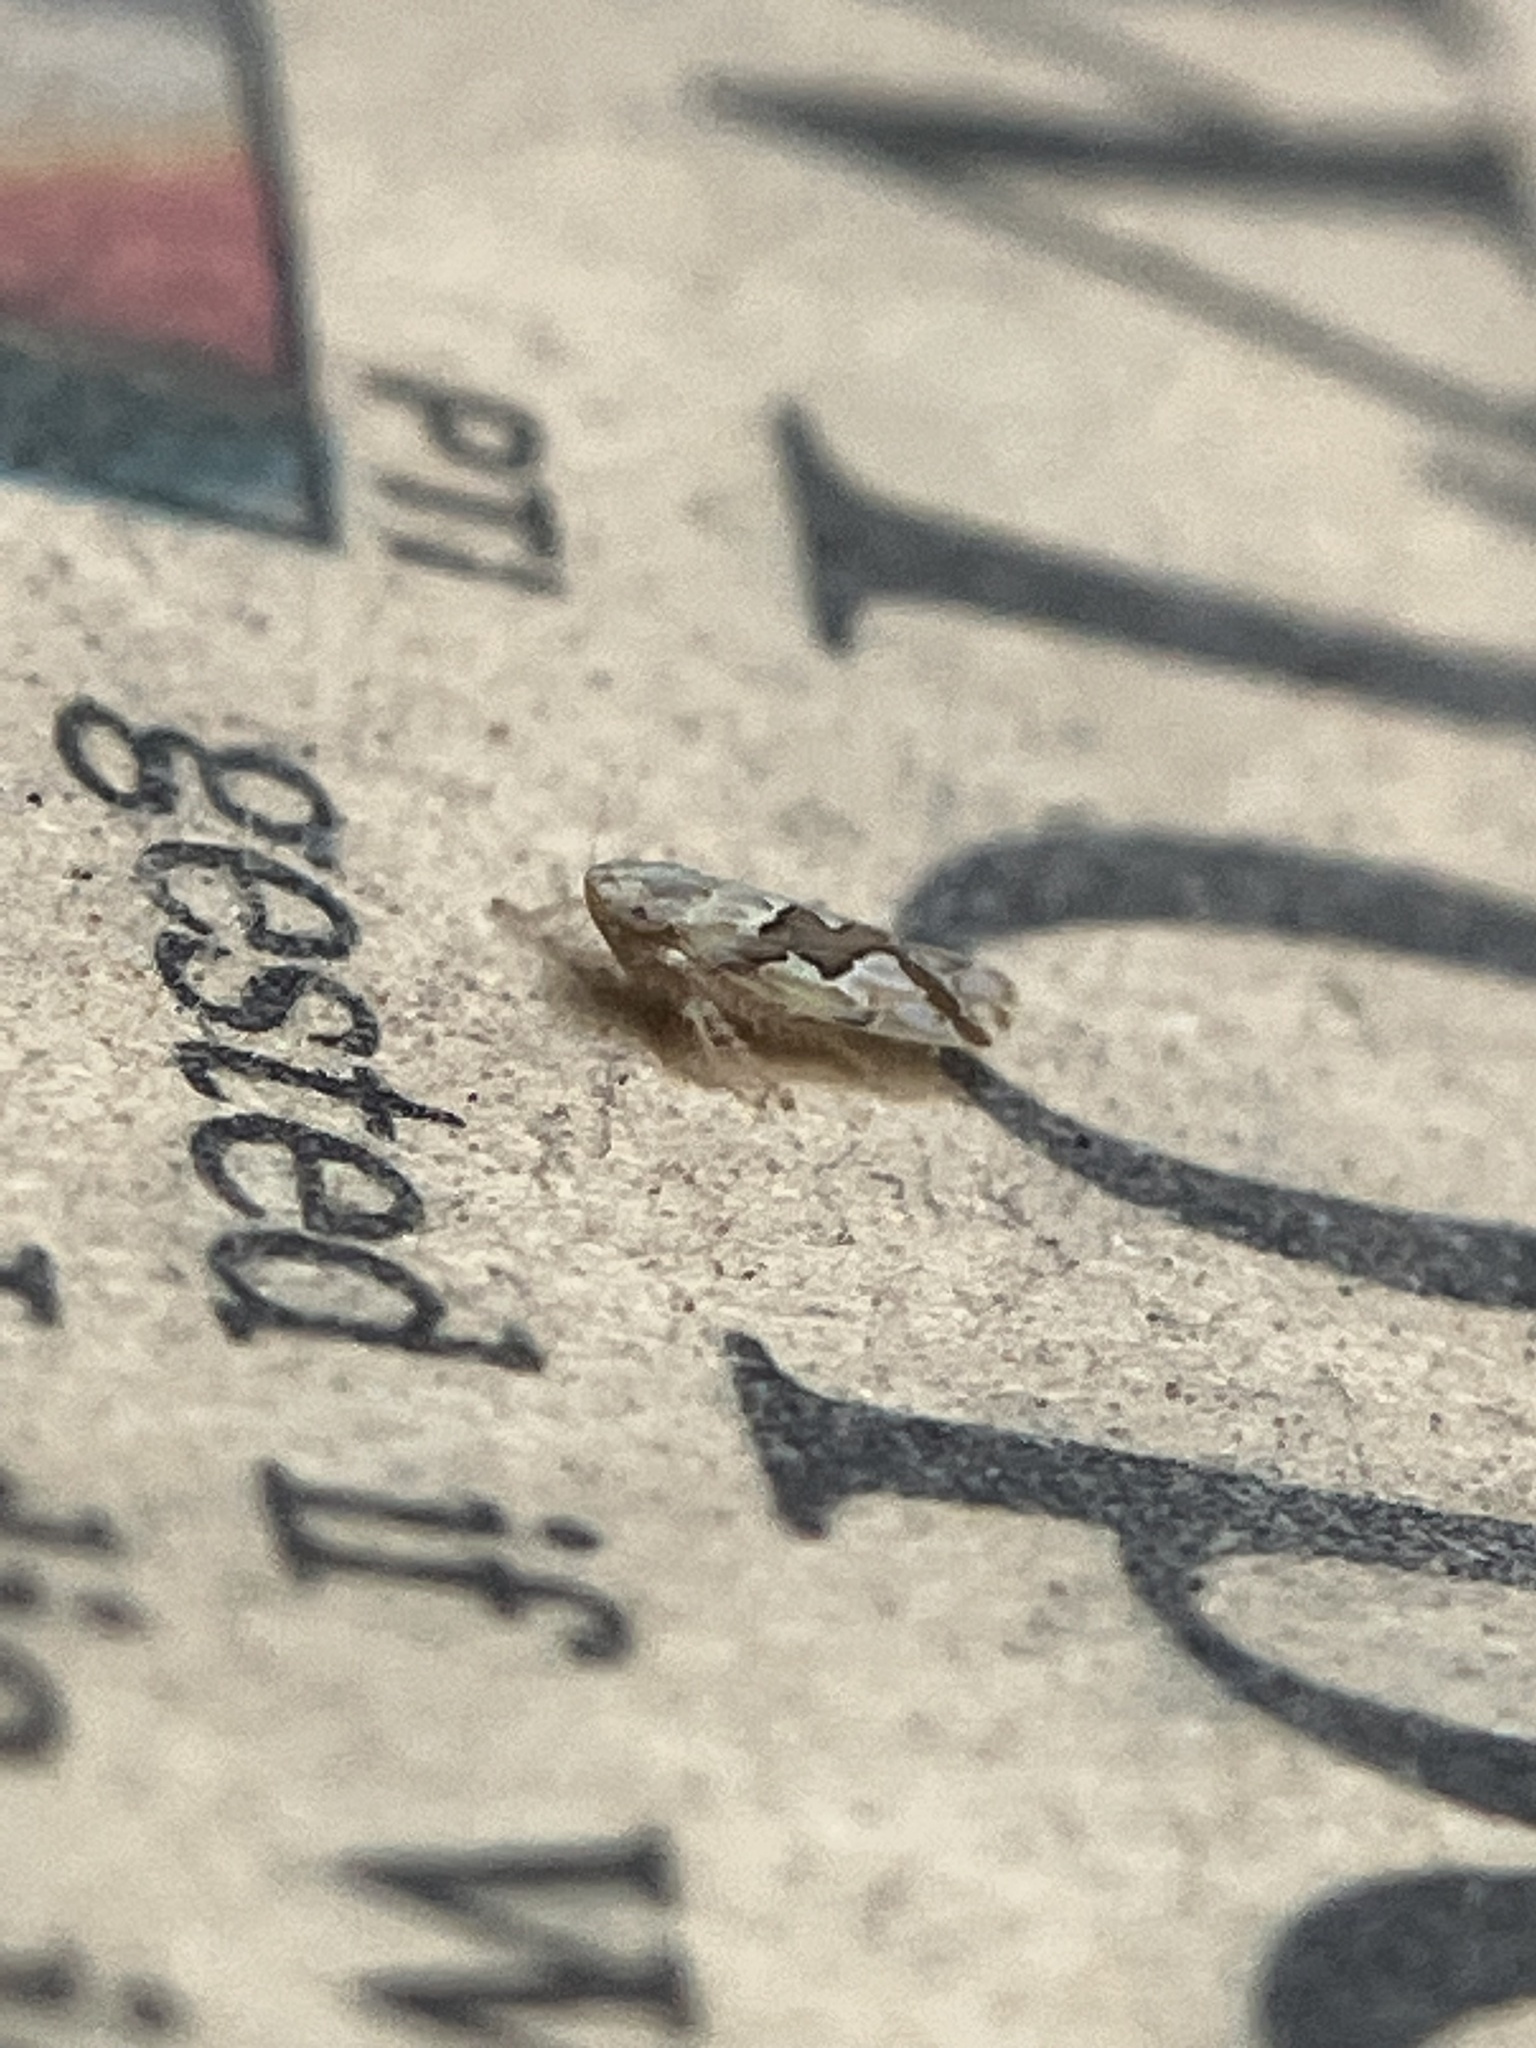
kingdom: Animalia
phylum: Arthropoda
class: Insecta
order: Hemiptera
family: Cicadellidae
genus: Maiestas
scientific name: Maiestas dorsalis
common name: Zig-zag leafhopper
